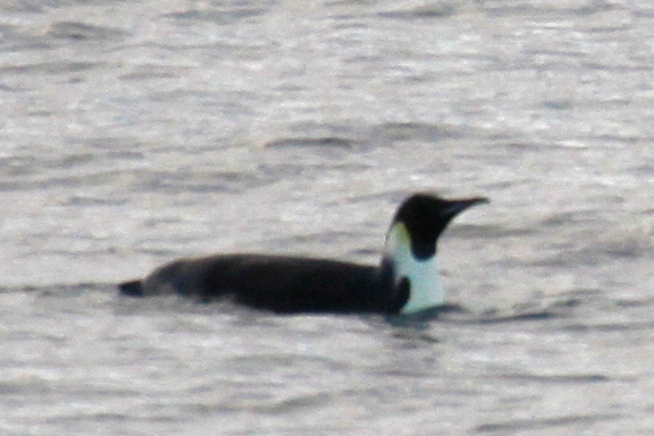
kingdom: Animalia
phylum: Chordata
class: Aves
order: Sphenisciformes
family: Spheniscidae
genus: Aptenodytes
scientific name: Aptenodytes forsteri
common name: Emperor penguin
